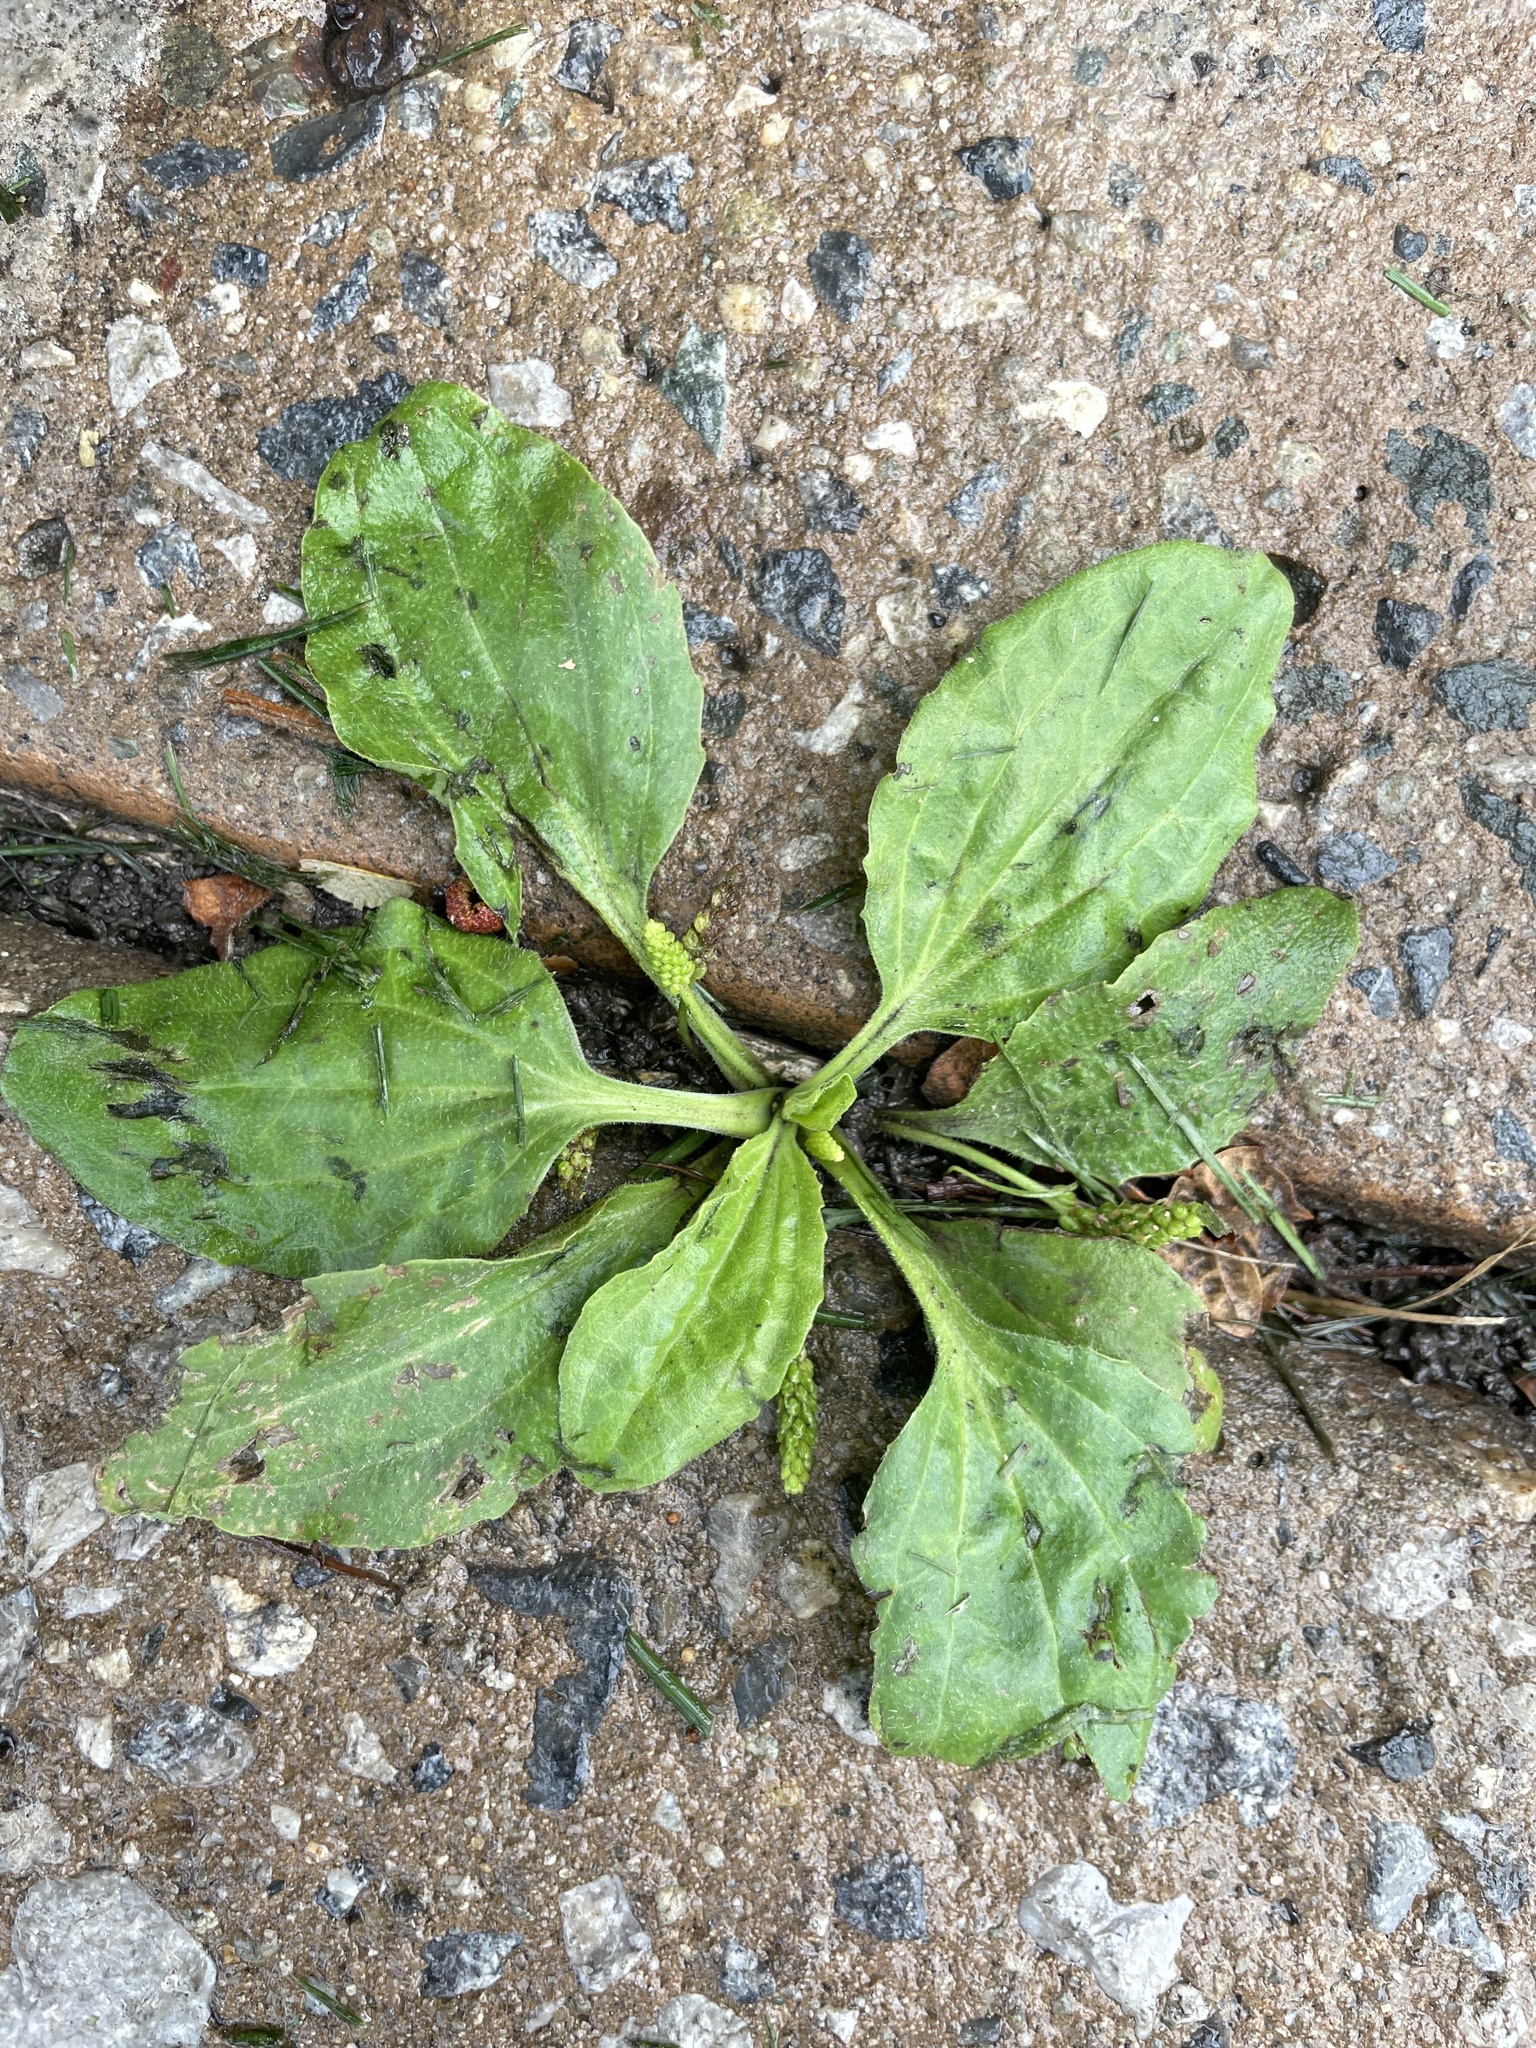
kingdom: Plantae
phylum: Tracheophyta
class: Magnoliopsida
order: Lamiales
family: Plantaginaceae
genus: Plantago
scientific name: Plantago major
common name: Common plantain
